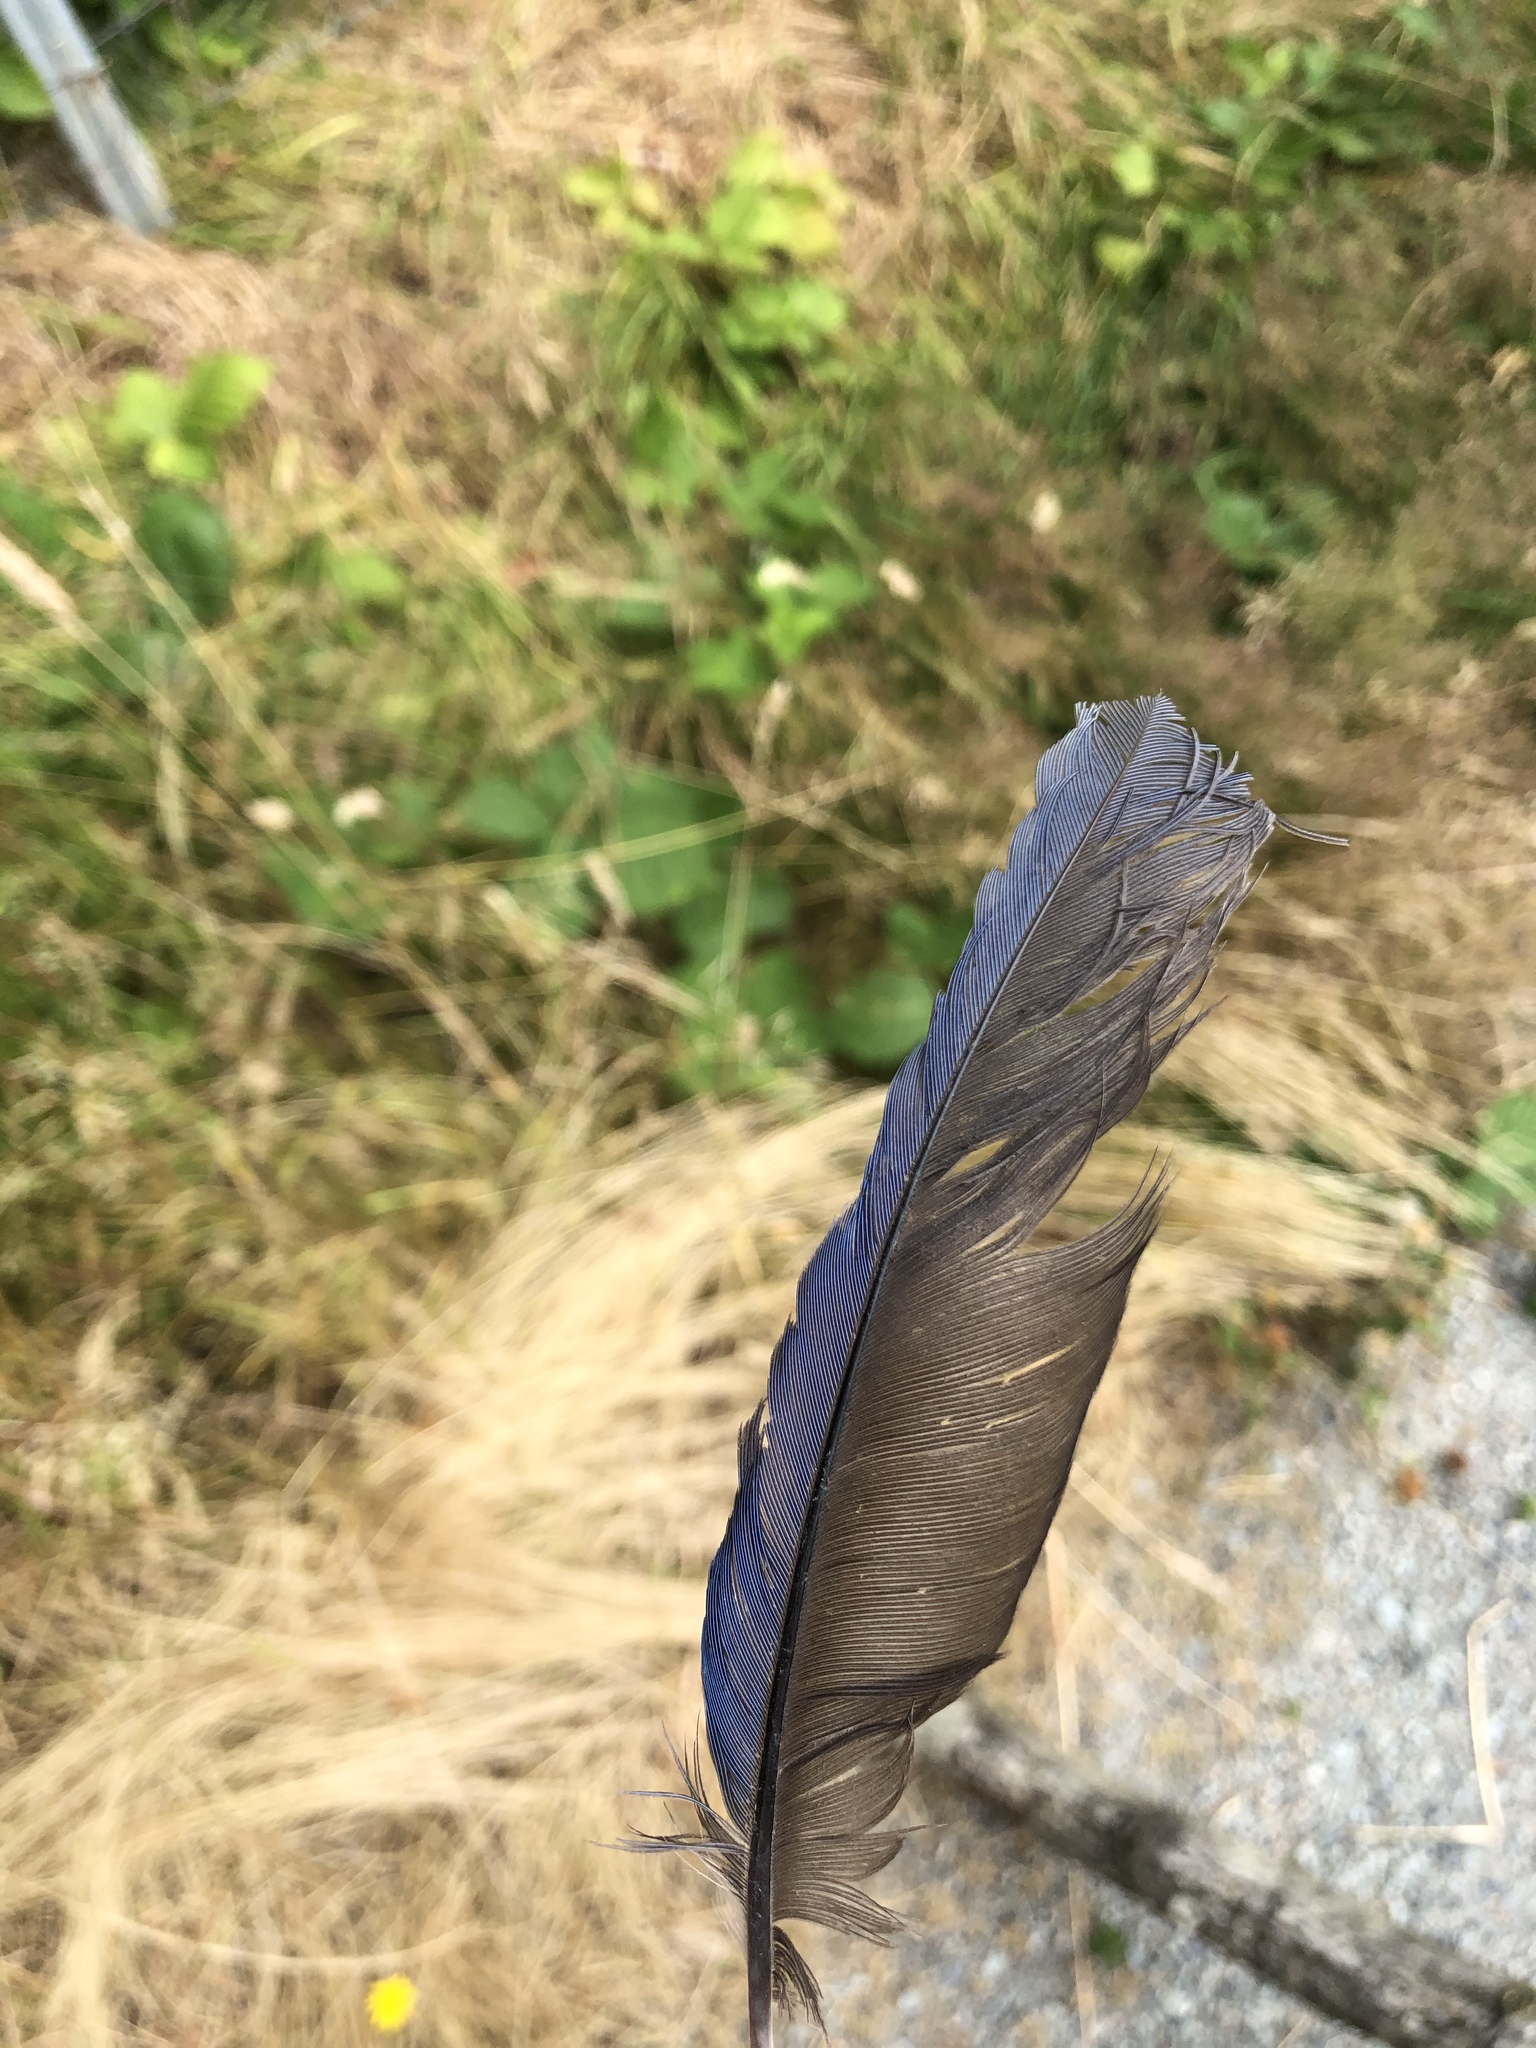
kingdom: Animalia
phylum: Chordata
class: Aves
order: Passeriformes
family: Corvidae
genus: Cyanocitta
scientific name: Cyanocitta stelleri
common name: Steller's jay
